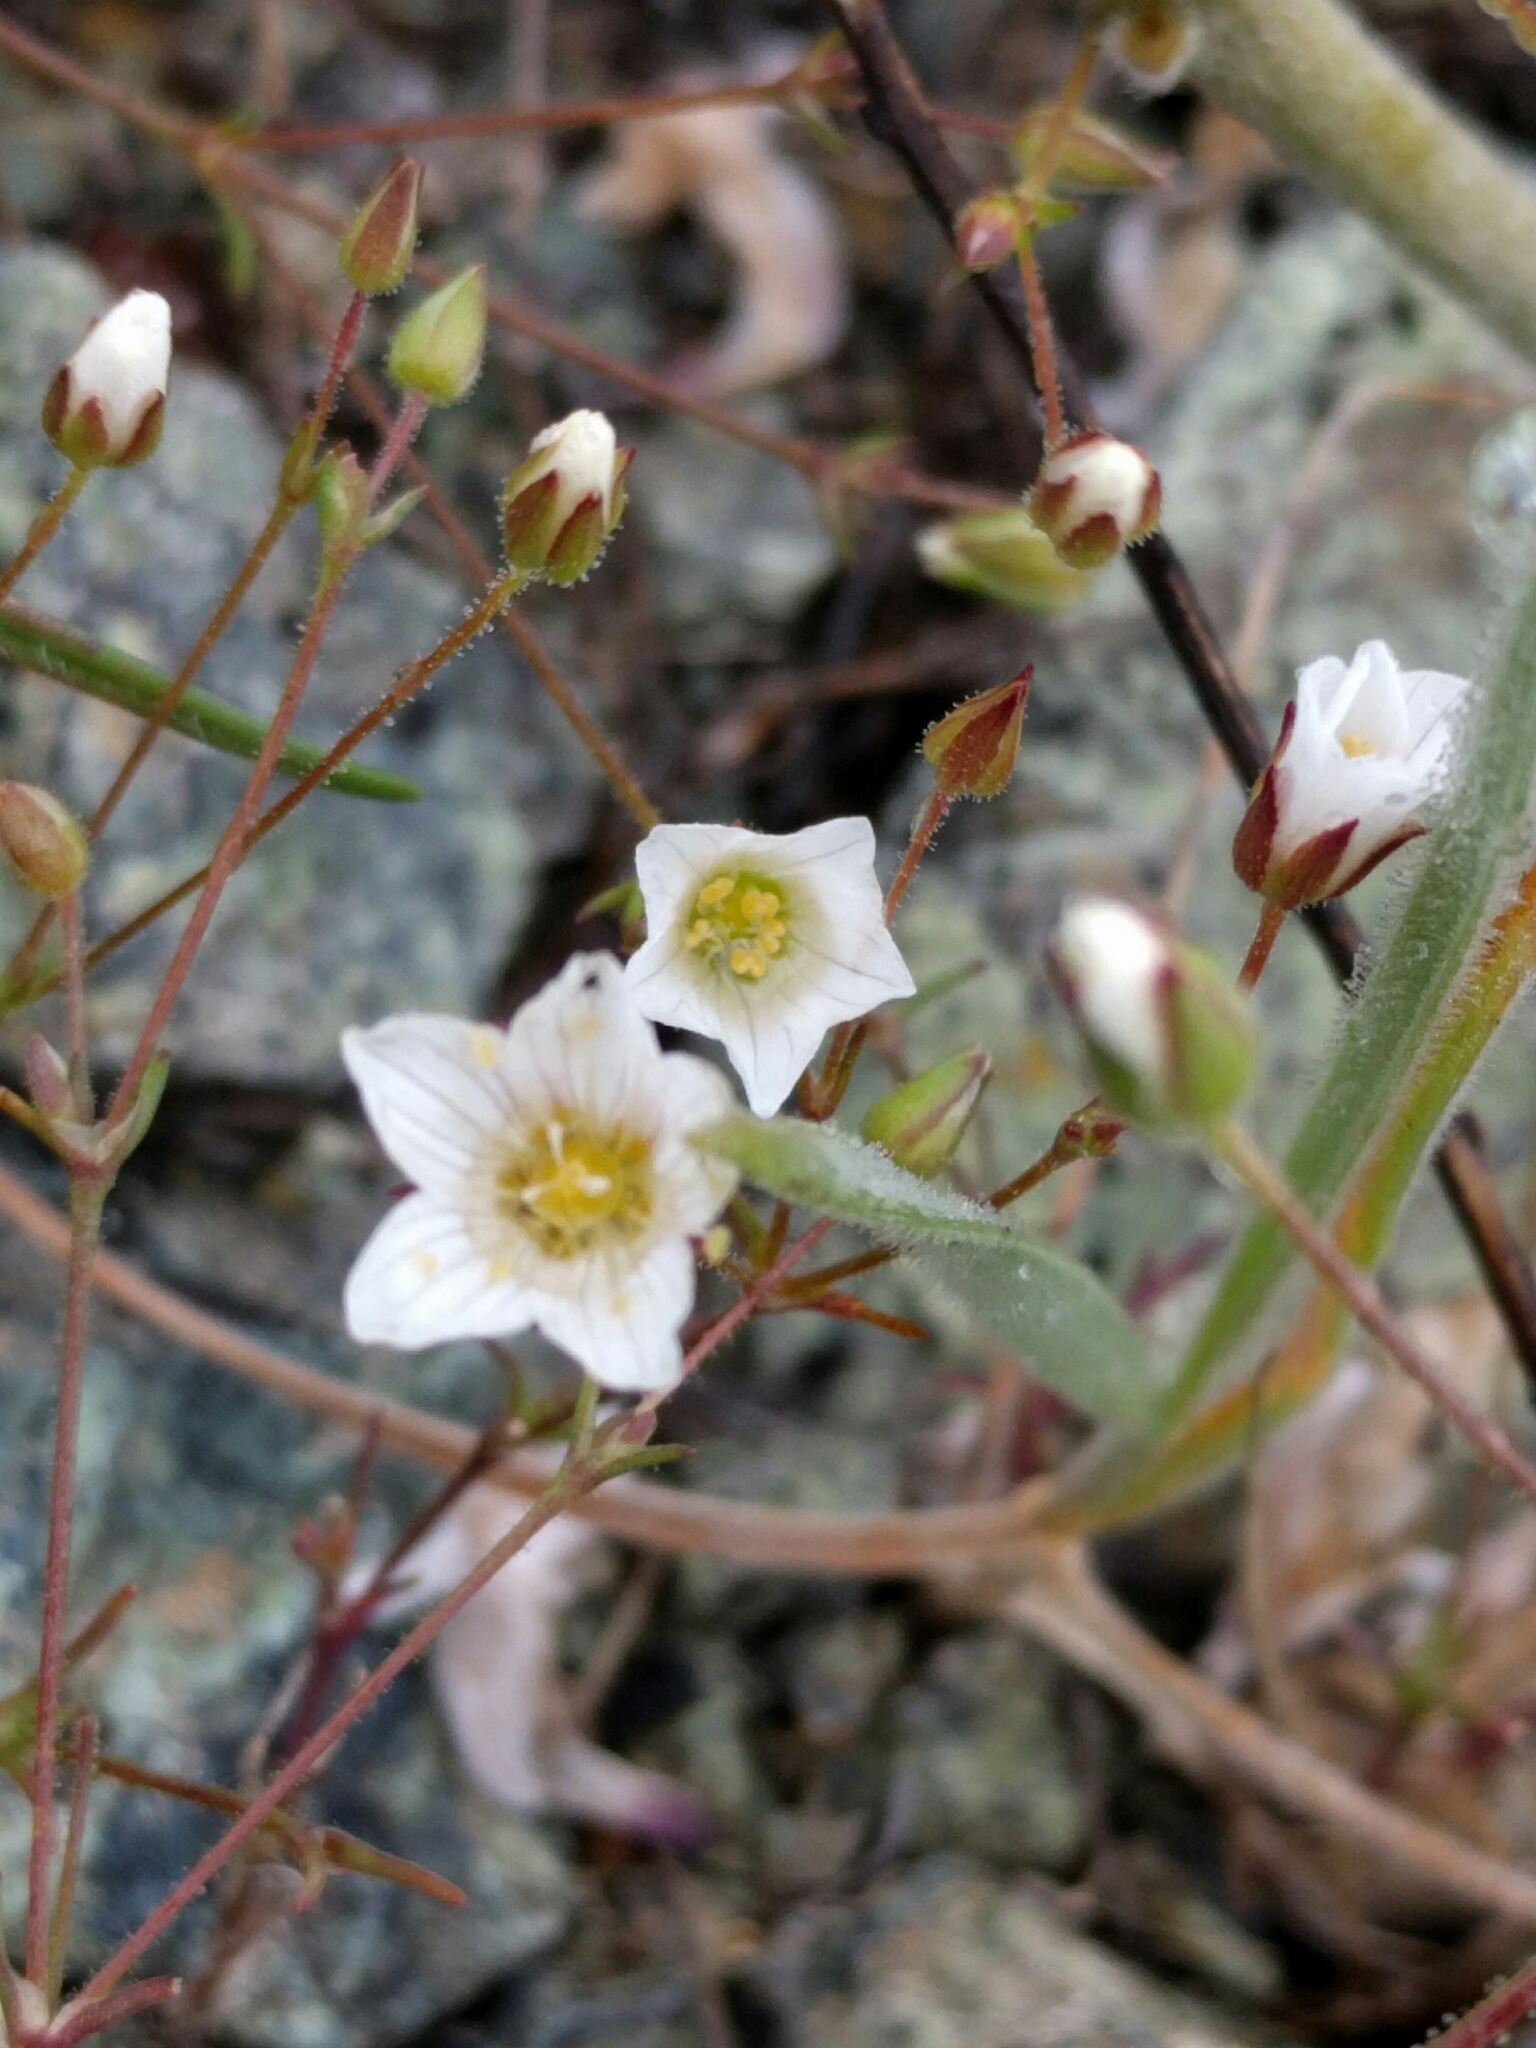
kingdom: Plantae
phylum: Tracheophyta
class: Magnoliopsida
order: Caryophyllales
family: Caryophyllaceae
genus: Sabulina
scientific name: Sabulina douglasii
